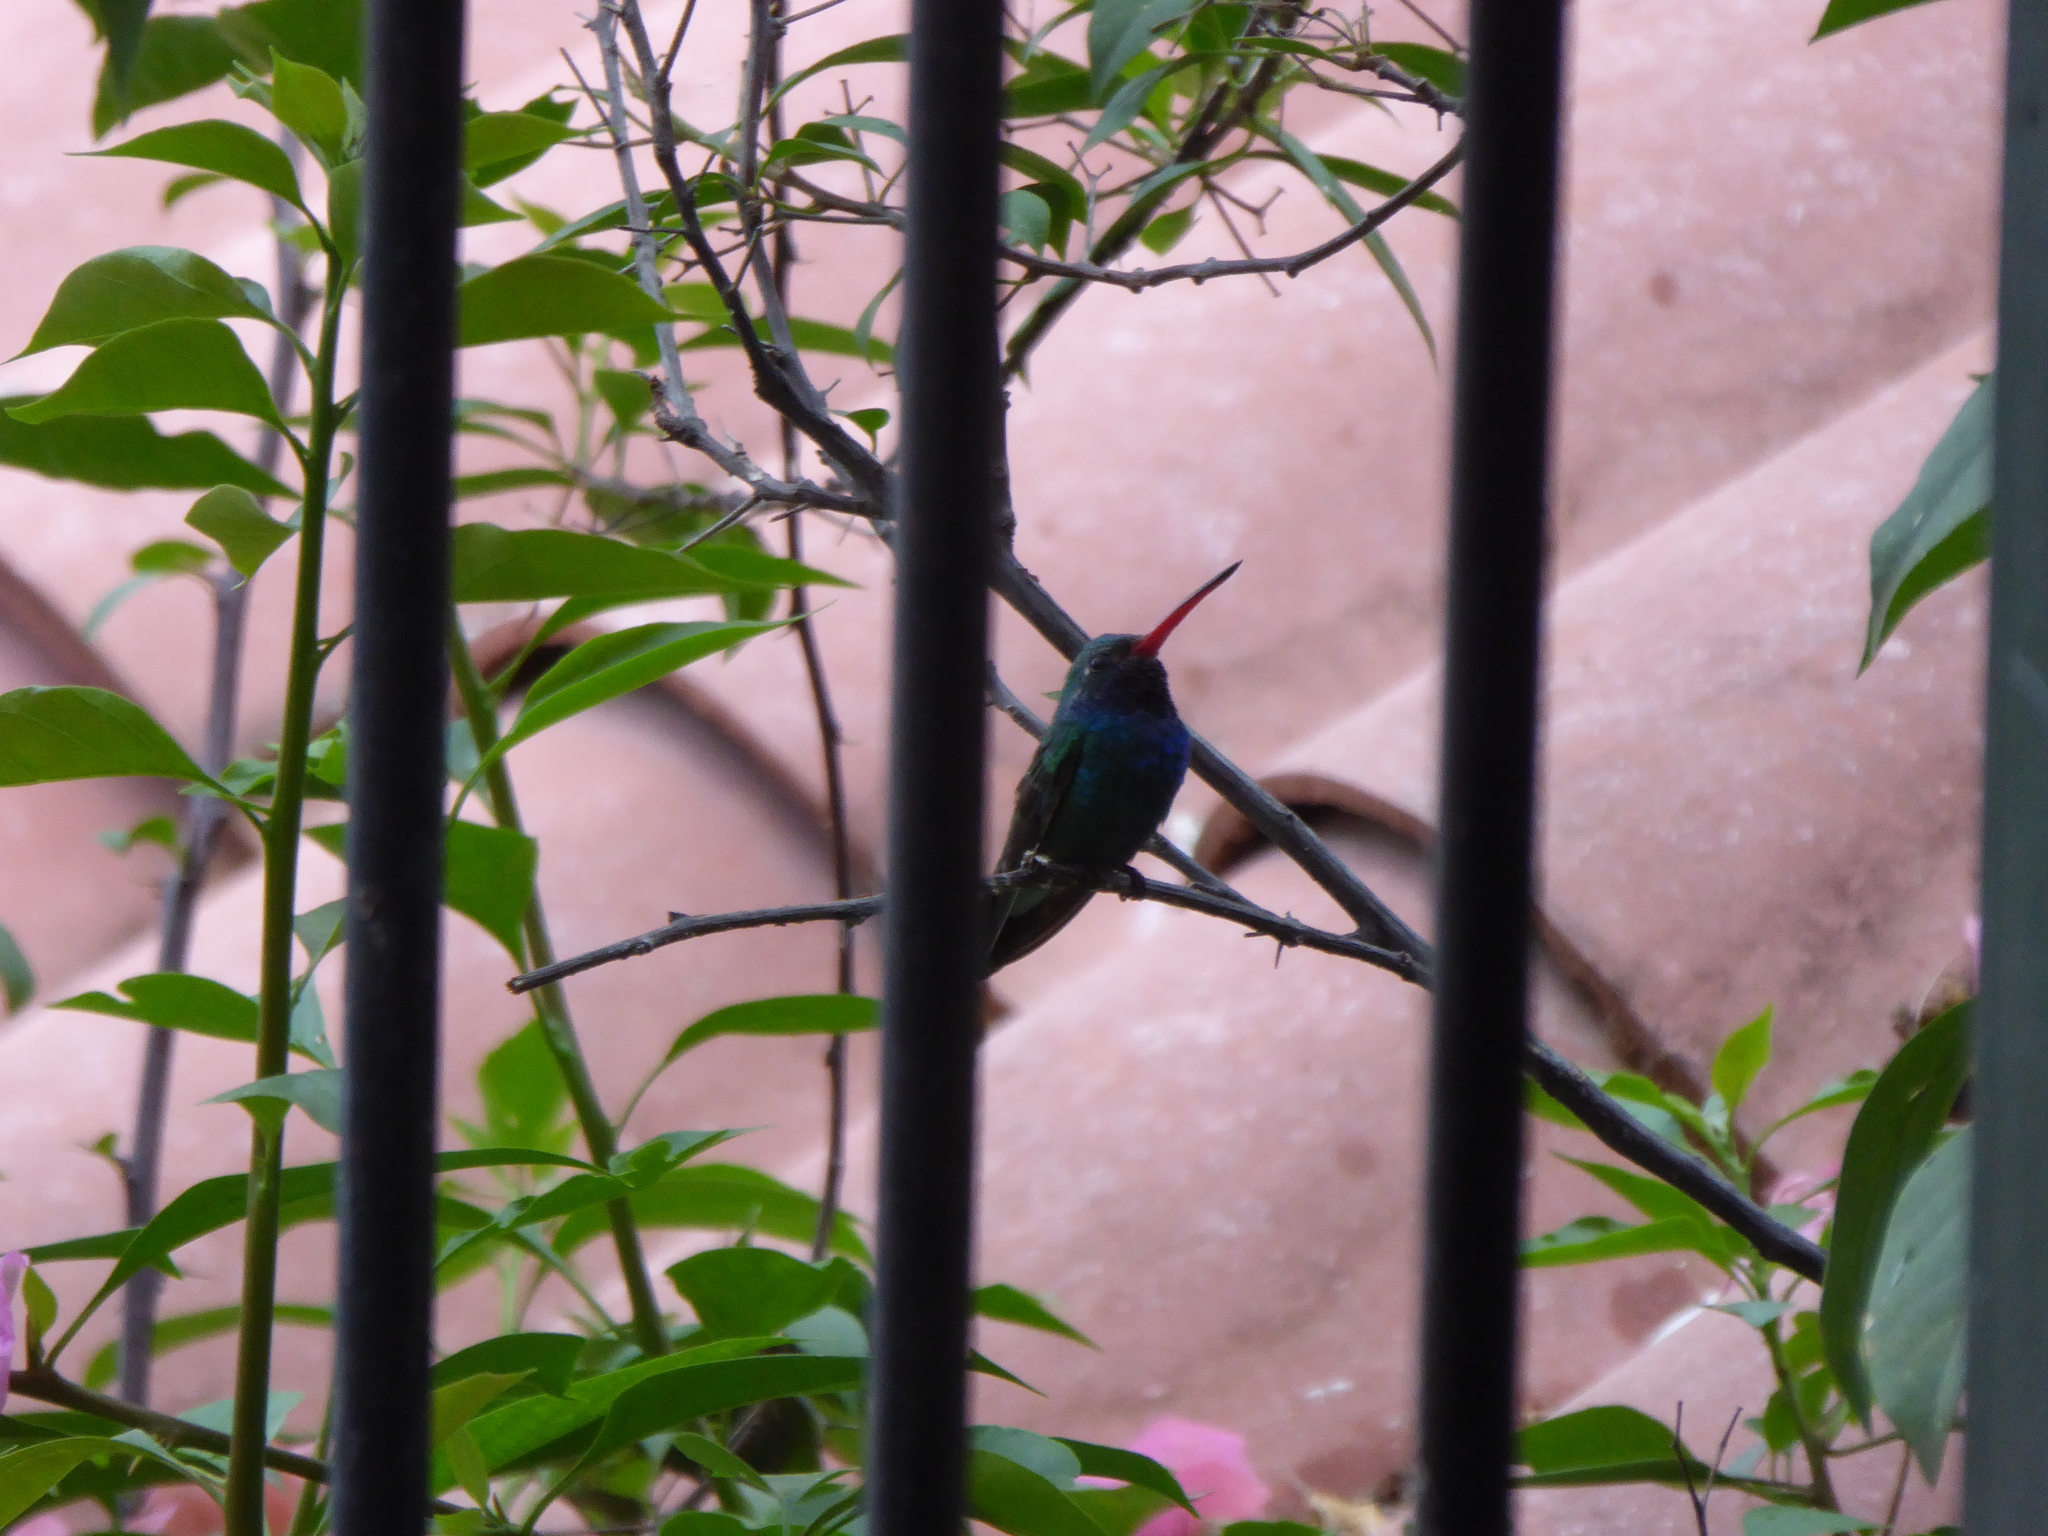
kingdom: Animalia
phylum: Chordata
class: Aves
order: Apodiformes
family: Trochilidae
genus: Cynanthus
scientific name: Cynanthus latirostris
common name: Broad-billed hummingbird
